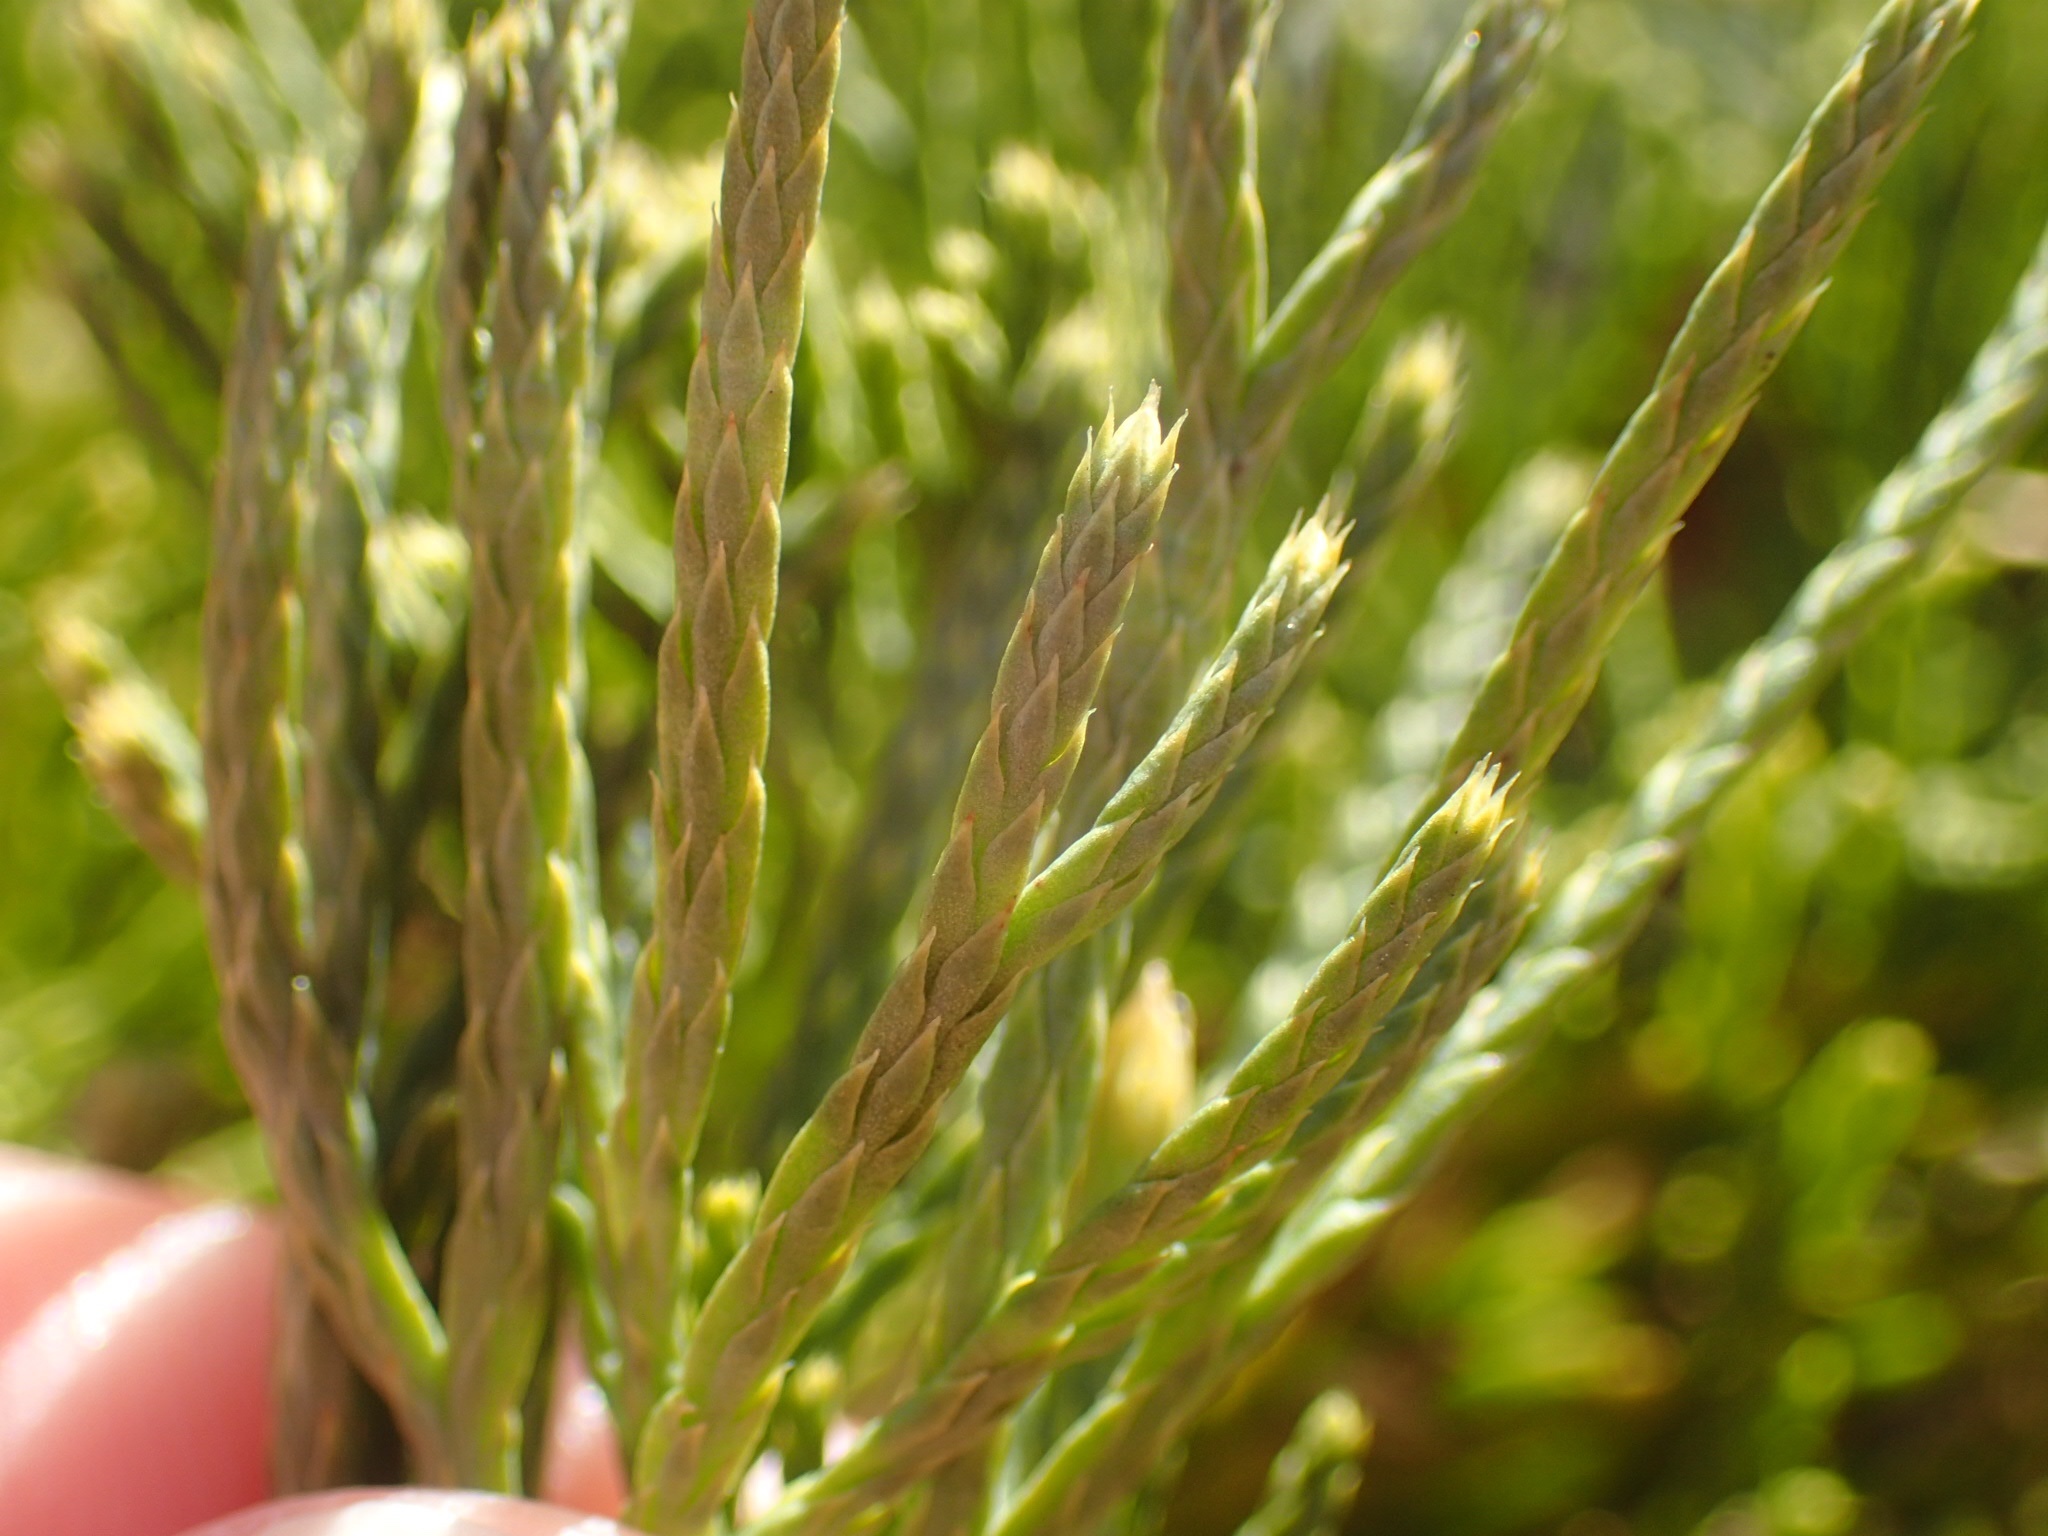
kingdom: Plantae
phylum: Tracheophyta
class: Lycopodiopsida
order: Lycopodiales
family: Lycopodiaceae
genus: Diphasiastrum
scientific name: Diphasiastrum tristachyum
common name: Blue ground-cedar
